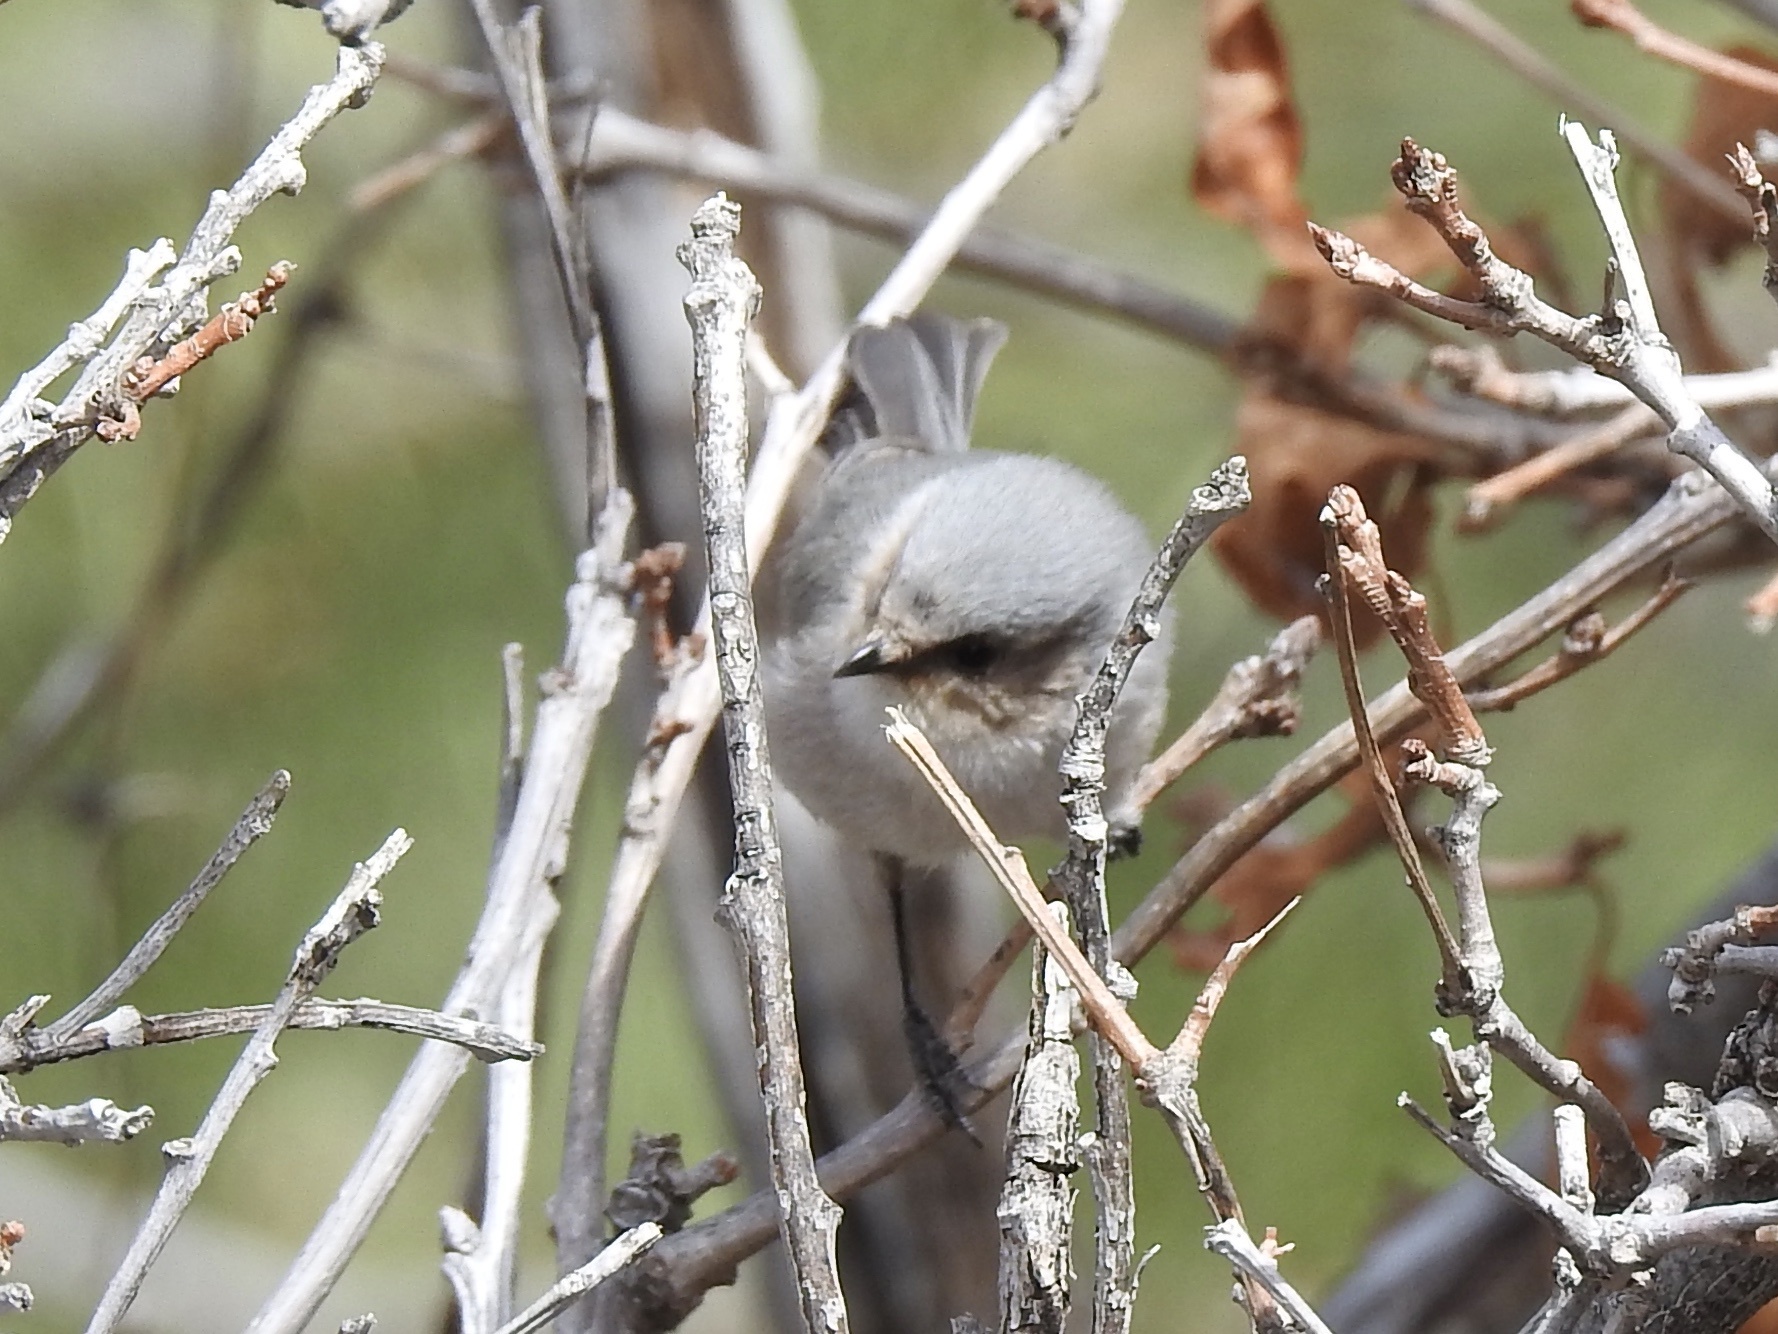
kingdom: Animalia
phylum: Chordata
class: Aves
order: Passeriformes
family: Aegithalidae
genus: Psaltriparus
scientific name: Psaltriparus minimus
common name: American bushtit
